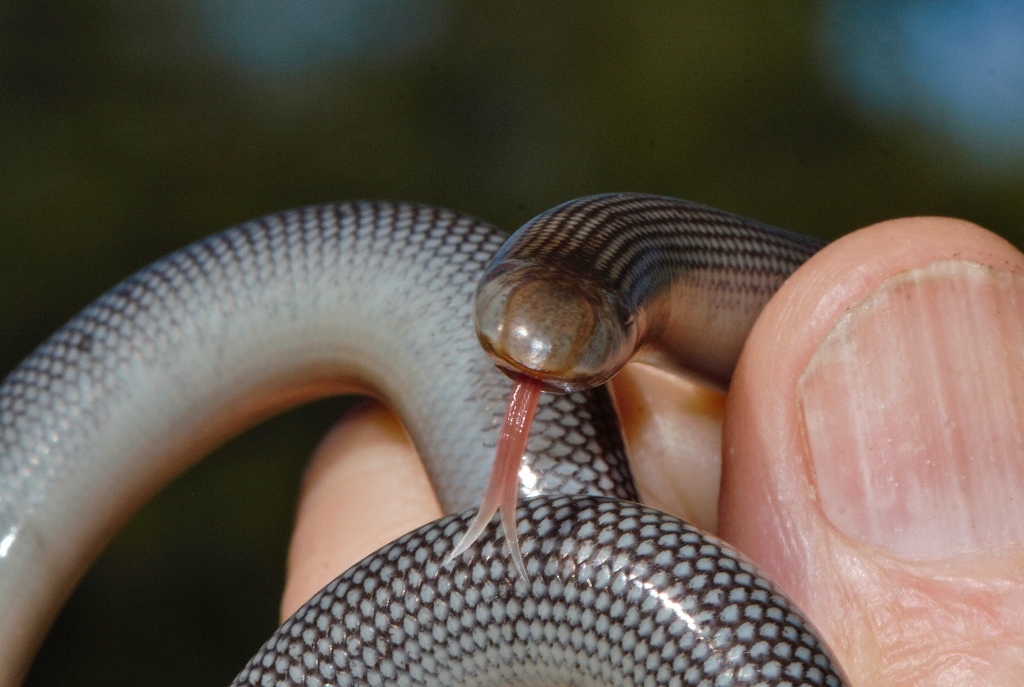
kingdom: Animalia
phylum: Chordata
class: Squamata
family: Typhlopidae
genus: Afrotyphlops
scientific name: Afrotyphlops mucruso
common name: Zambezi blind snake
